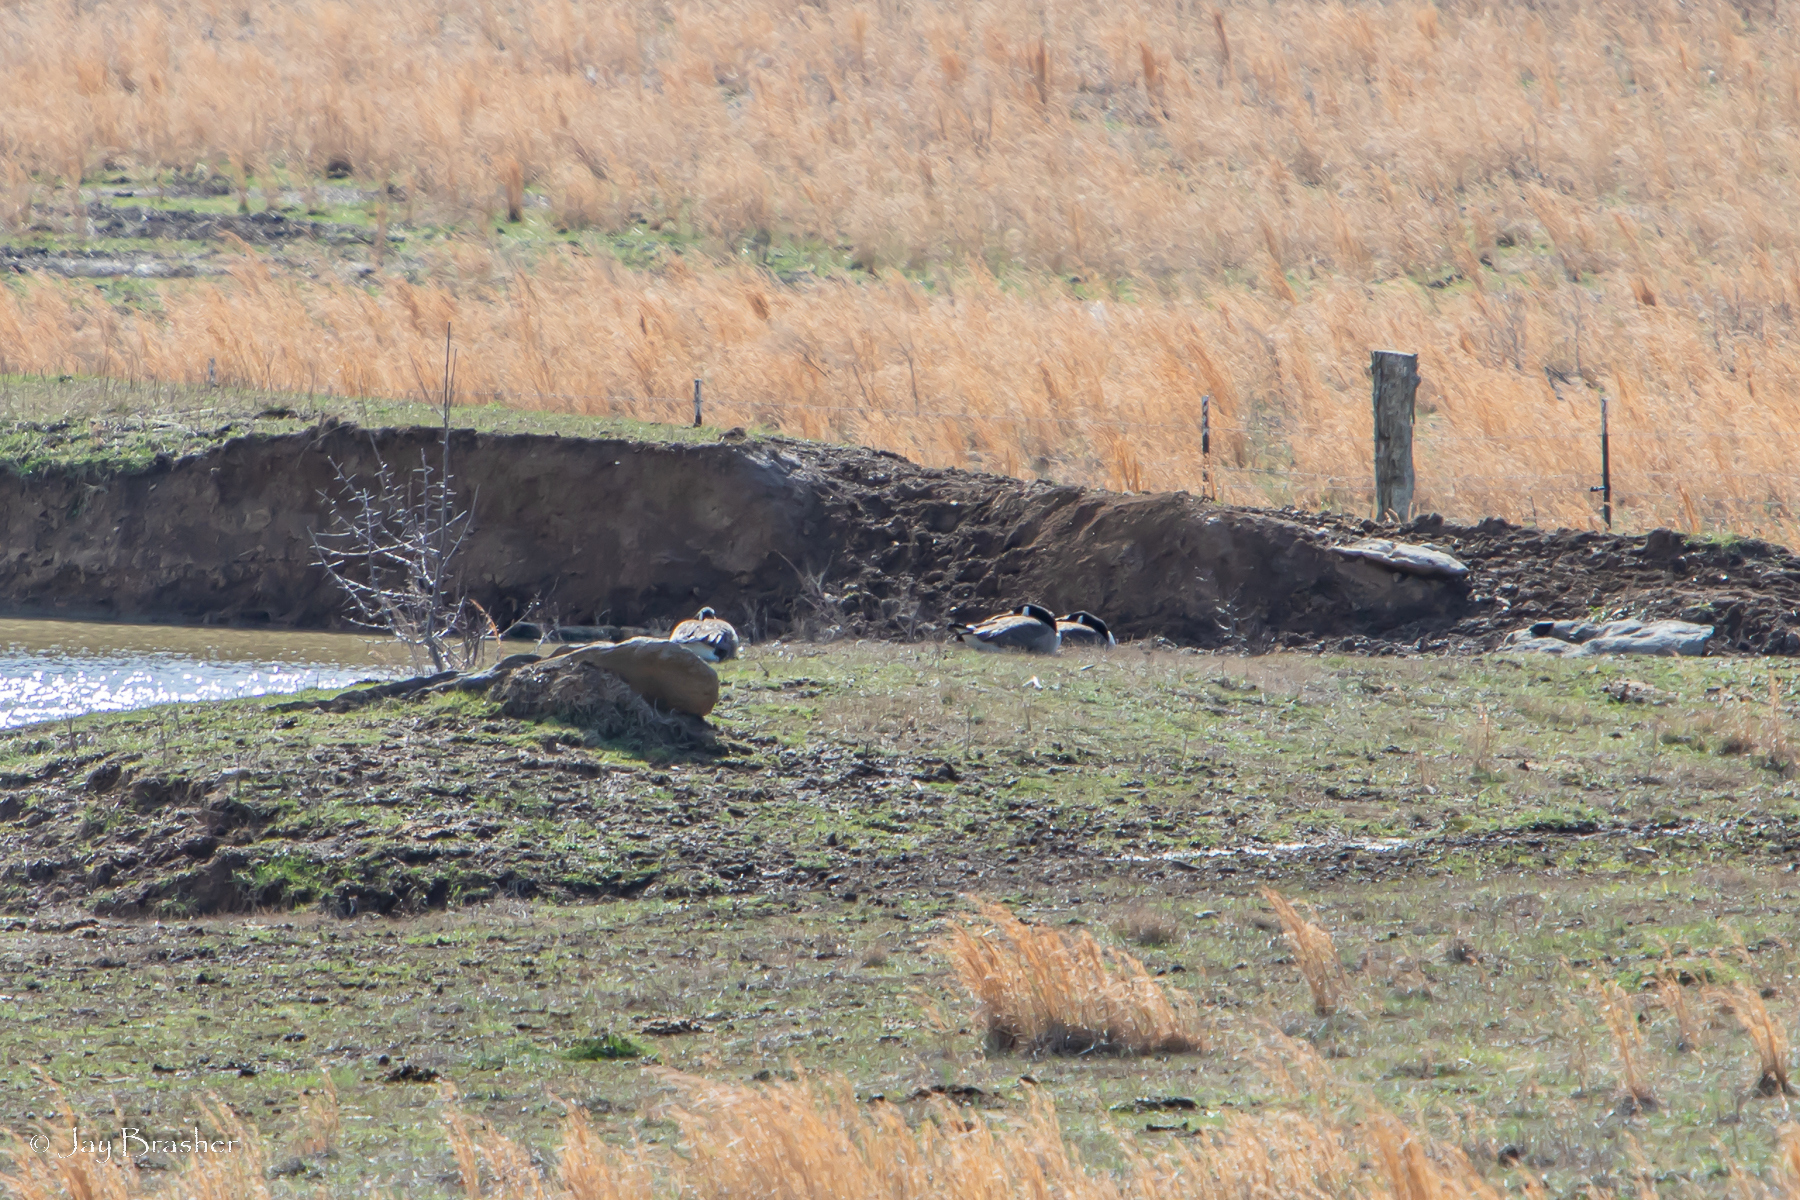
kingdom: Animalia
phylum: Chordata
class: Aves
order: Anseriformes
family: Anatidae
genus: Branta
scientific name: Branta canadensis
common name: Canada goose
